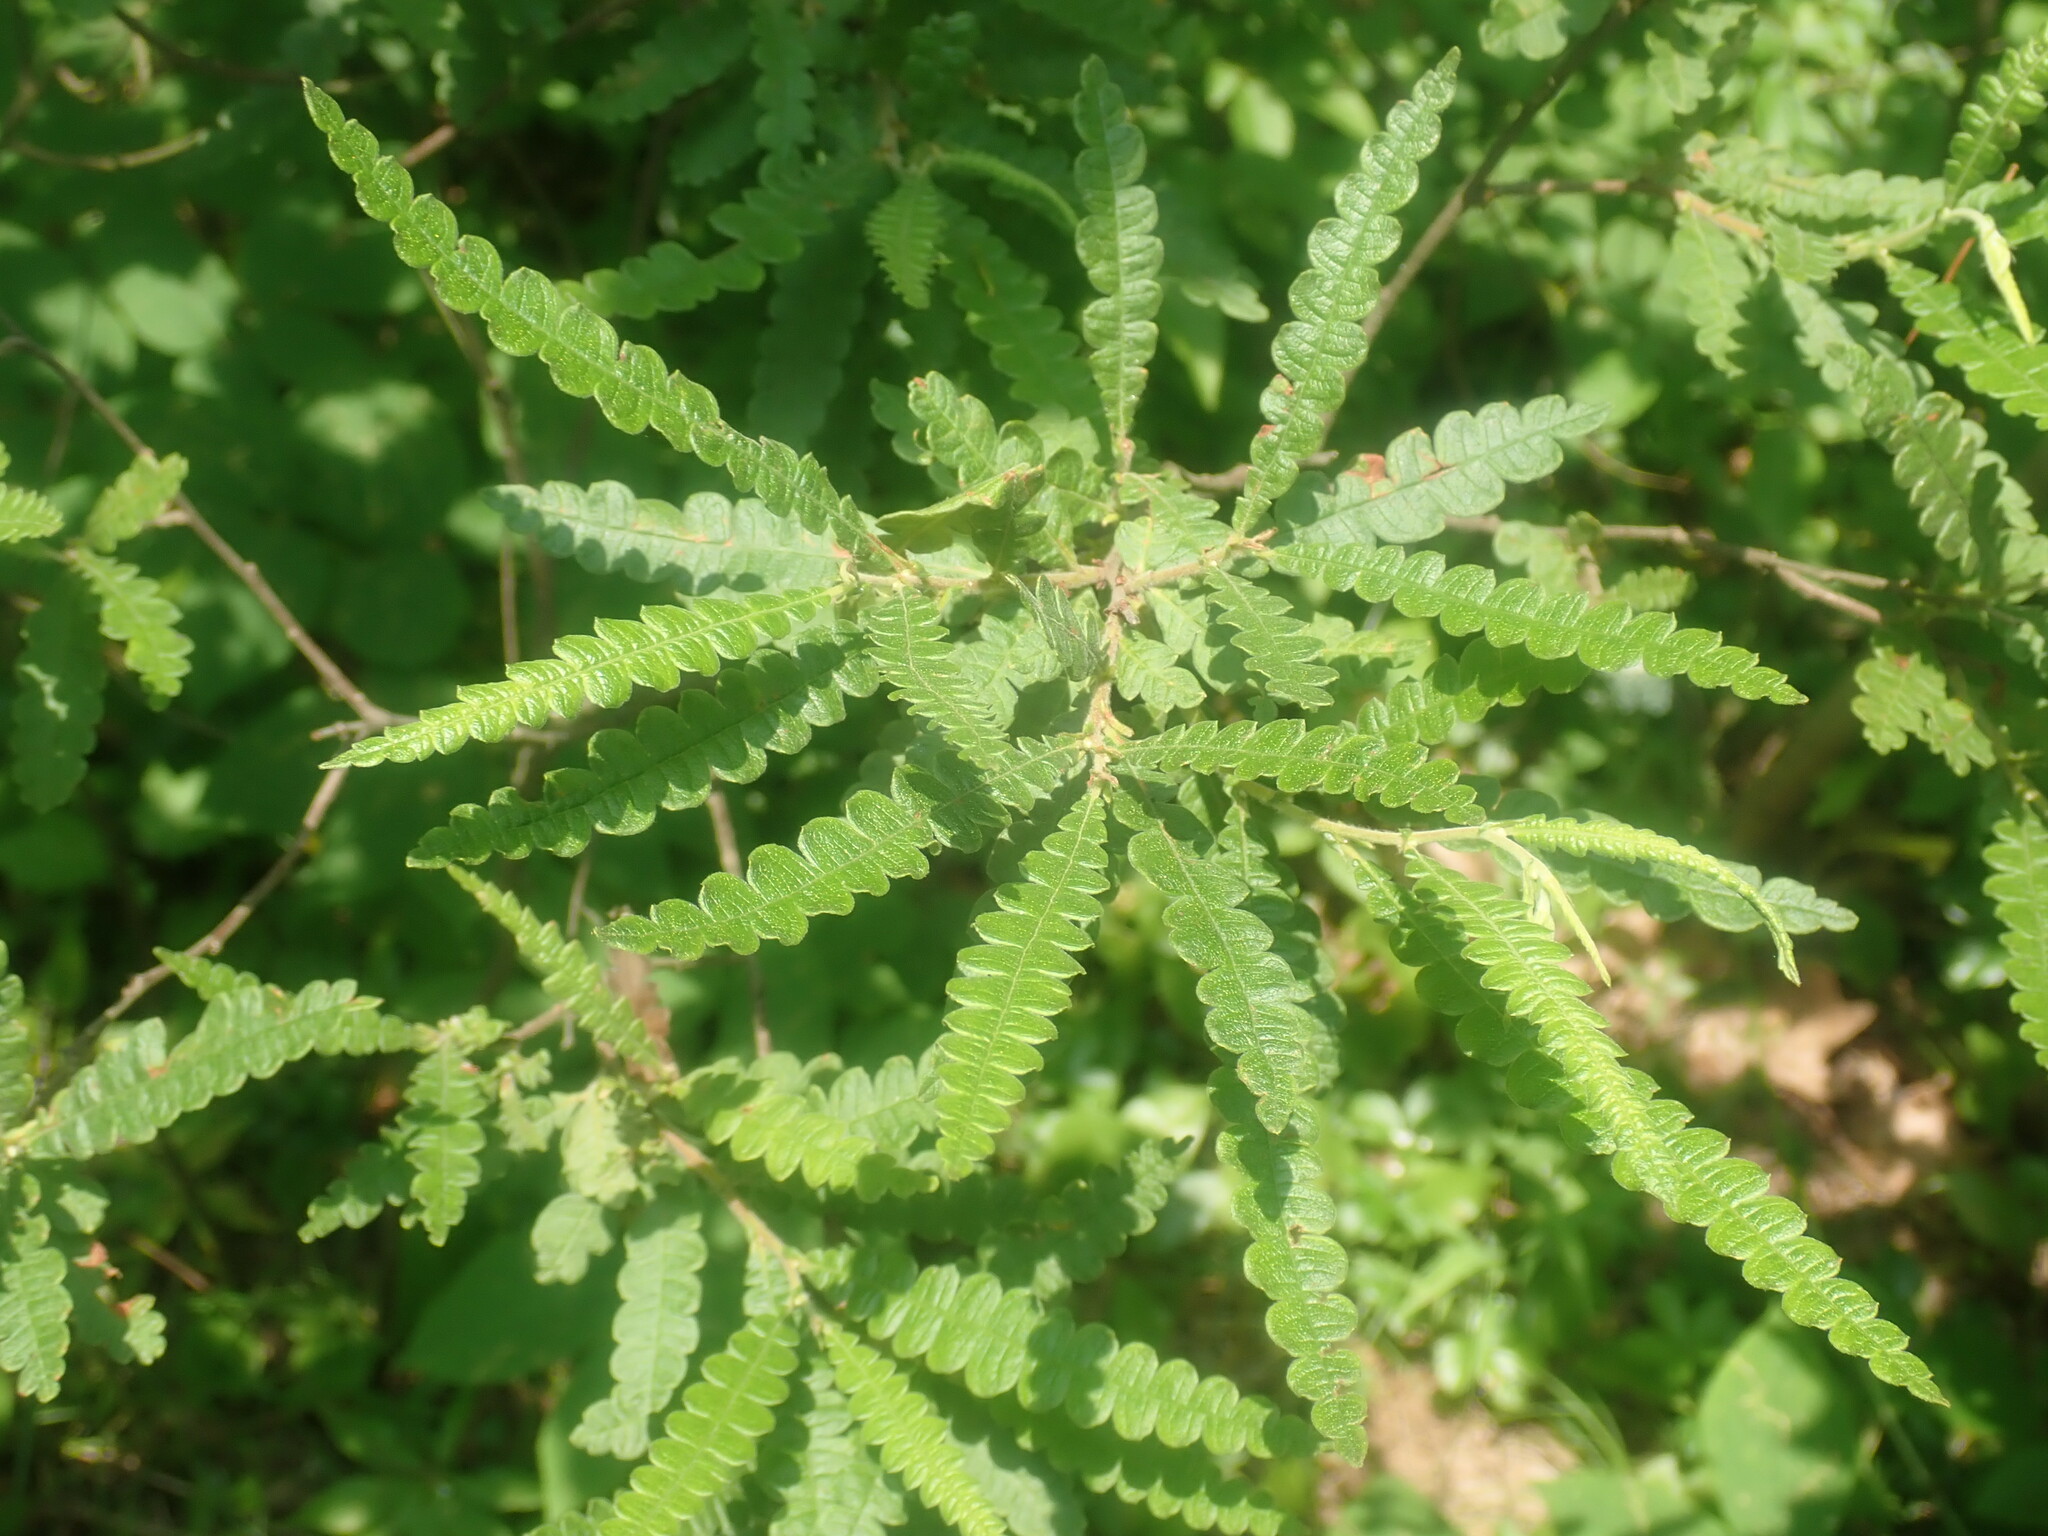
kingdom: Plantae
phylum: Tracheophyta
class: Magnoliopsida
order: Fagales
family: Myricaceae
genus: Comptonia
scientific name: Comptonia peregrina
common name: Sweet-fern
